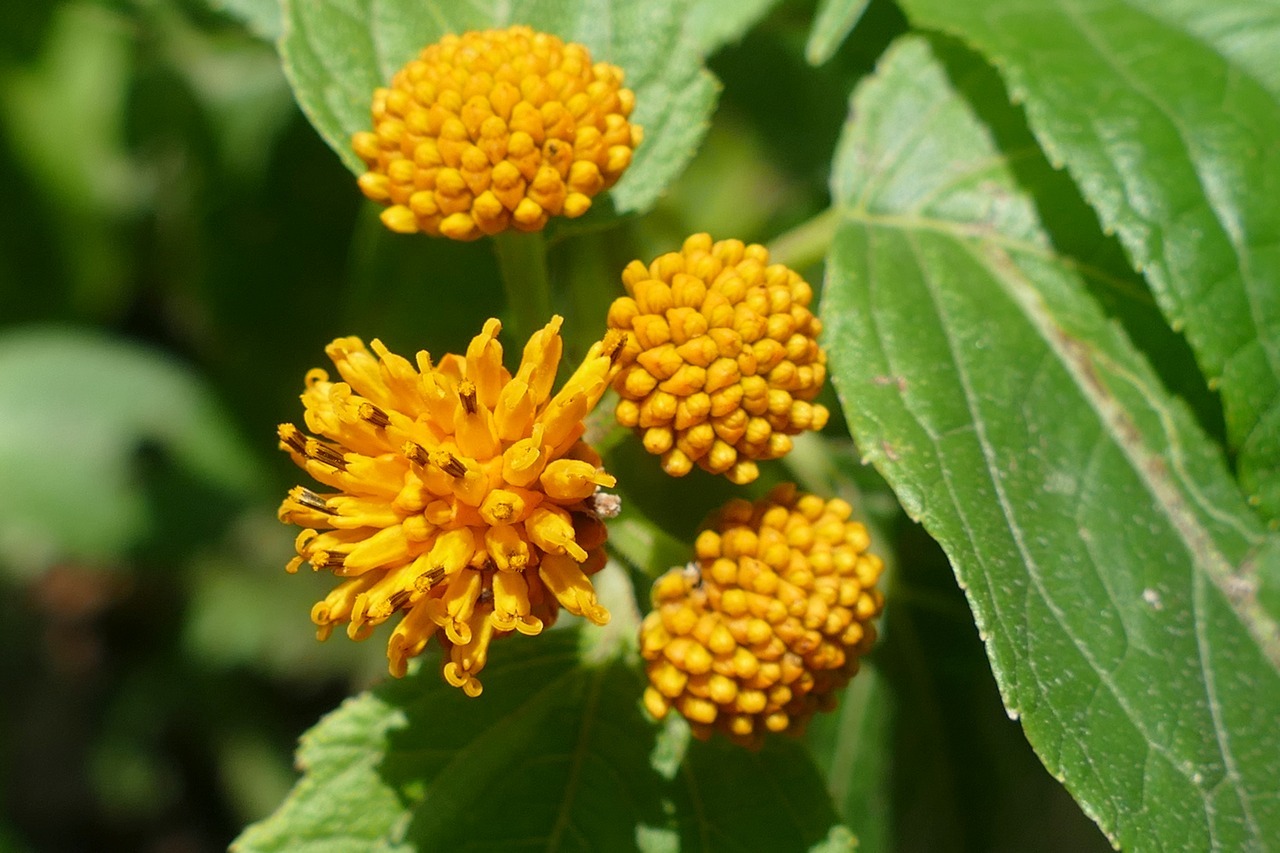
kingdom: Plantae
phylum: Tracheophyta
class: Magnoliopsida
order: Asterales
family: Asteraceae
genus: Tilesia
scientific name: Tilesia baccata
